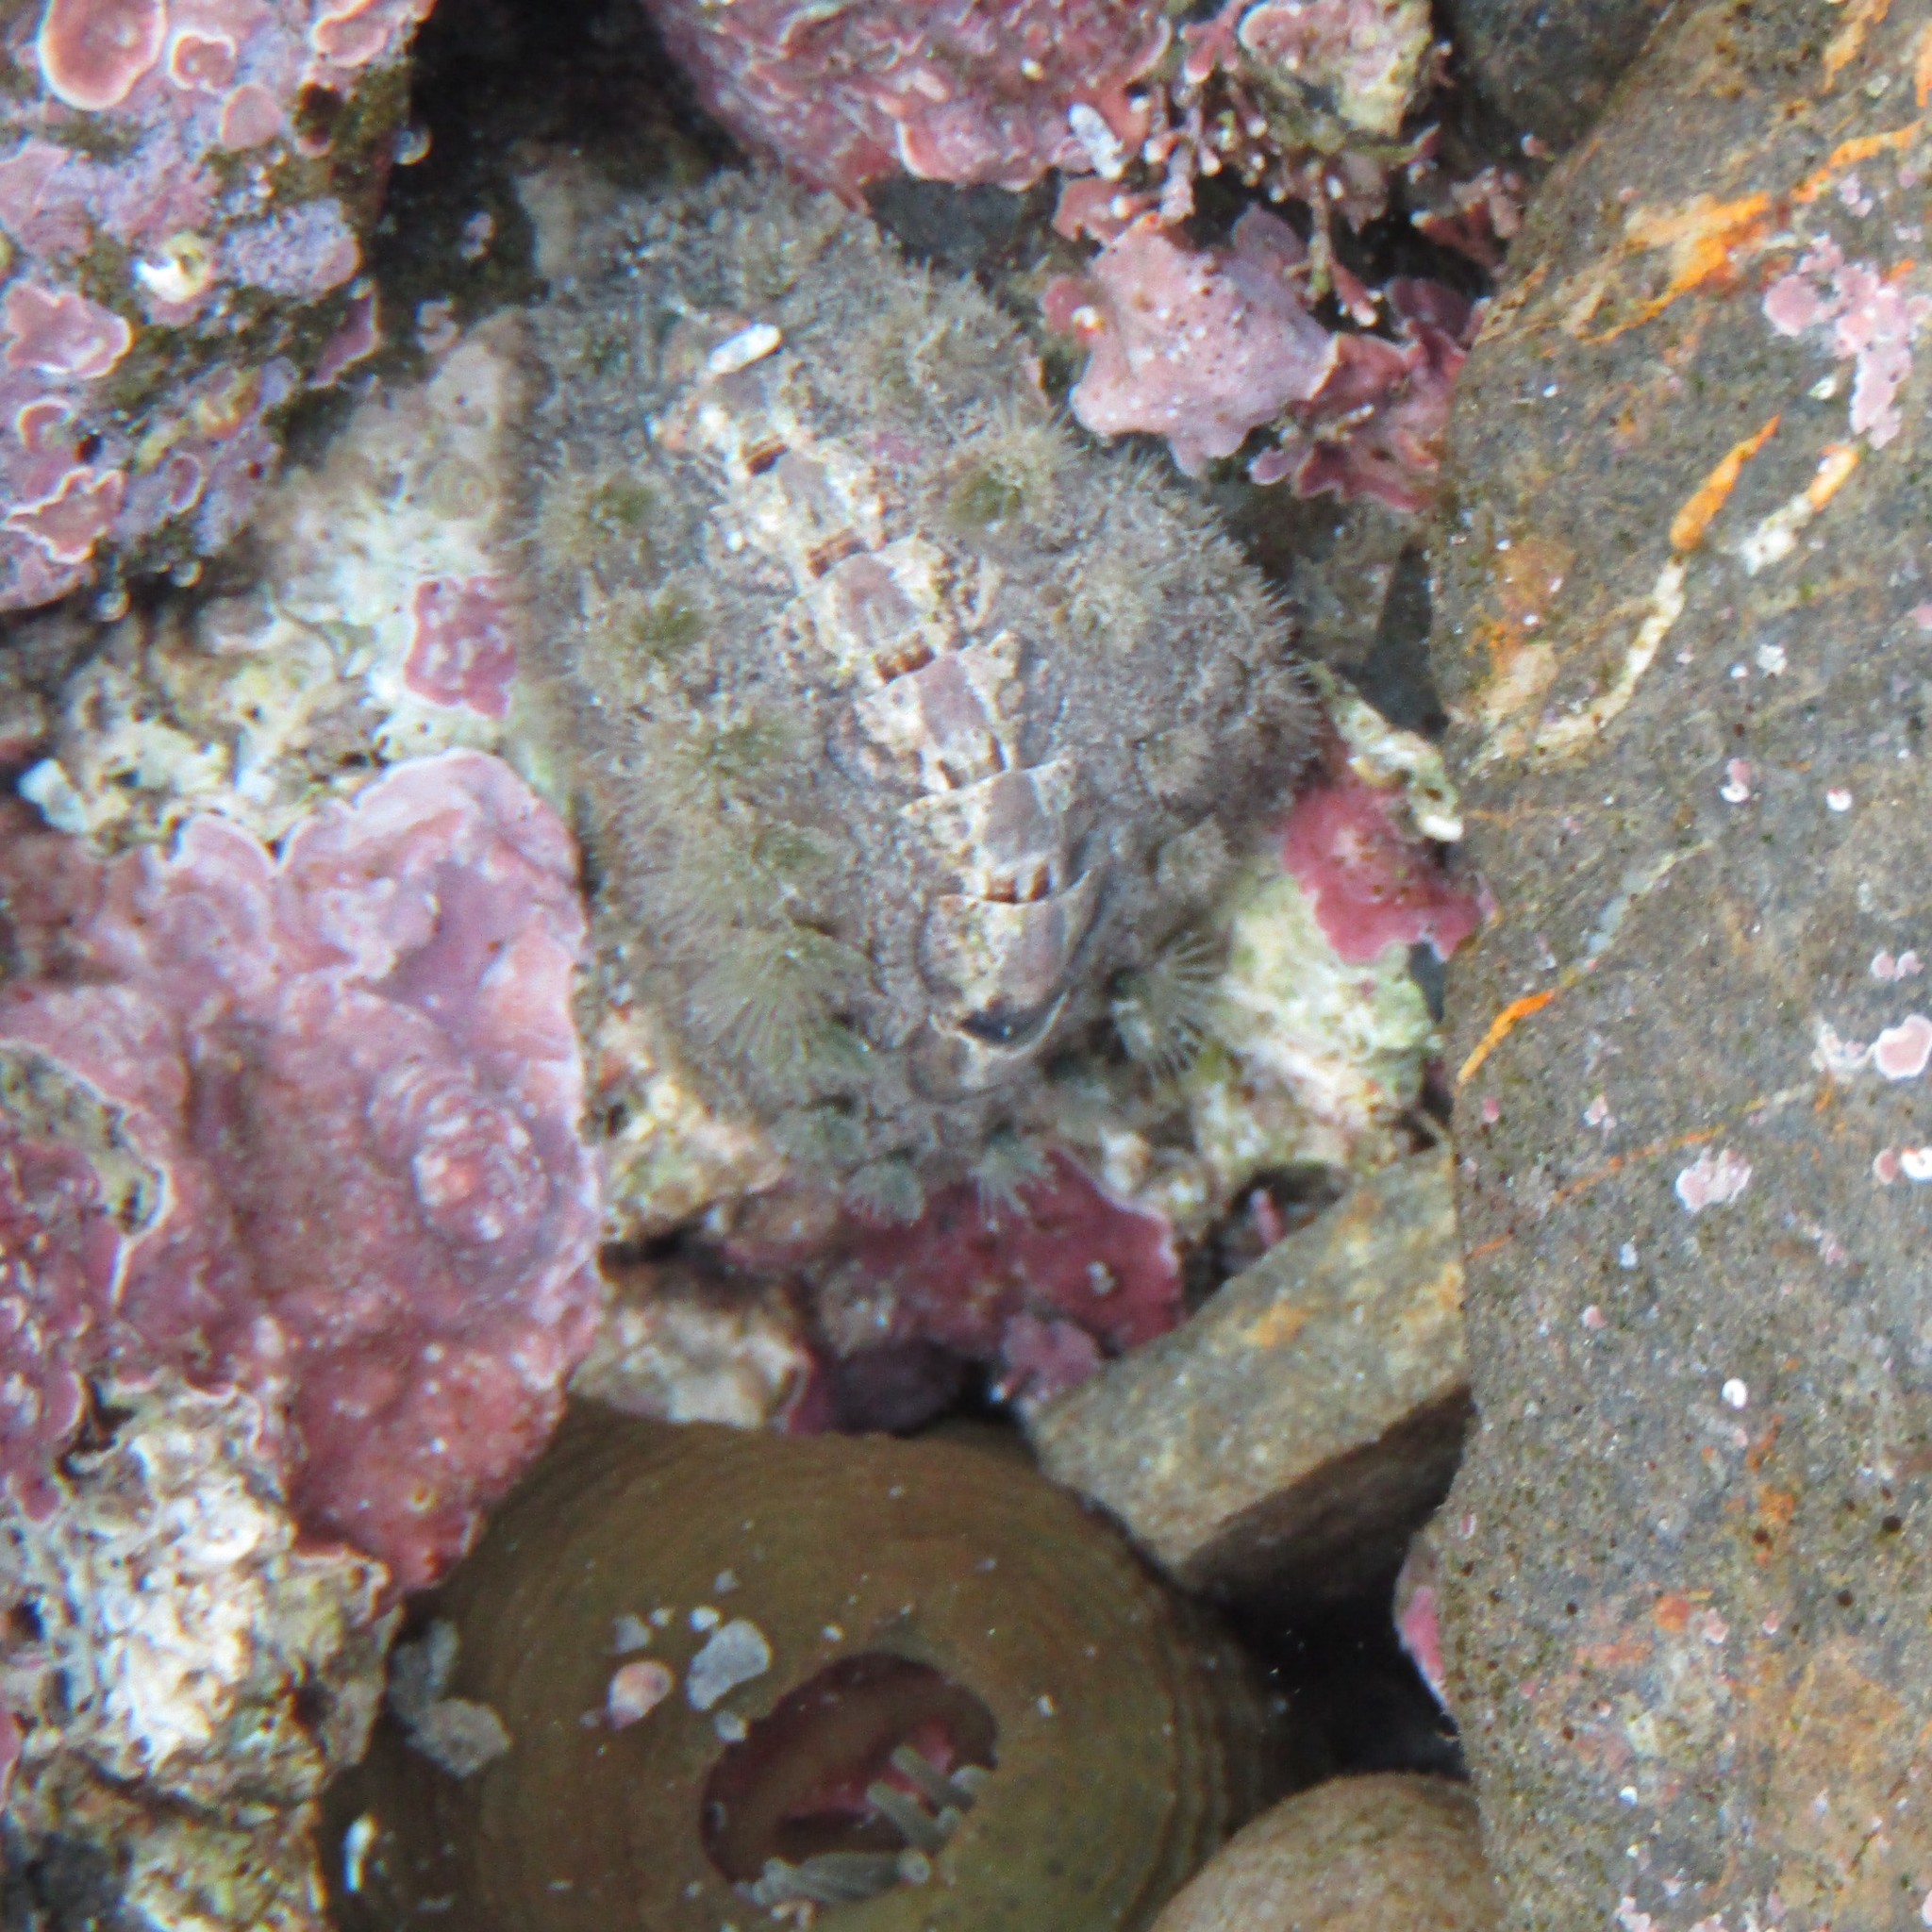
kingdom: Animalia
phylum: Mollusca
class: Polyplacophora
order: Chitonida
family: Acanthochitonidae
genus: Acanthochitona
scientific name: Acanthochitona zelandica
